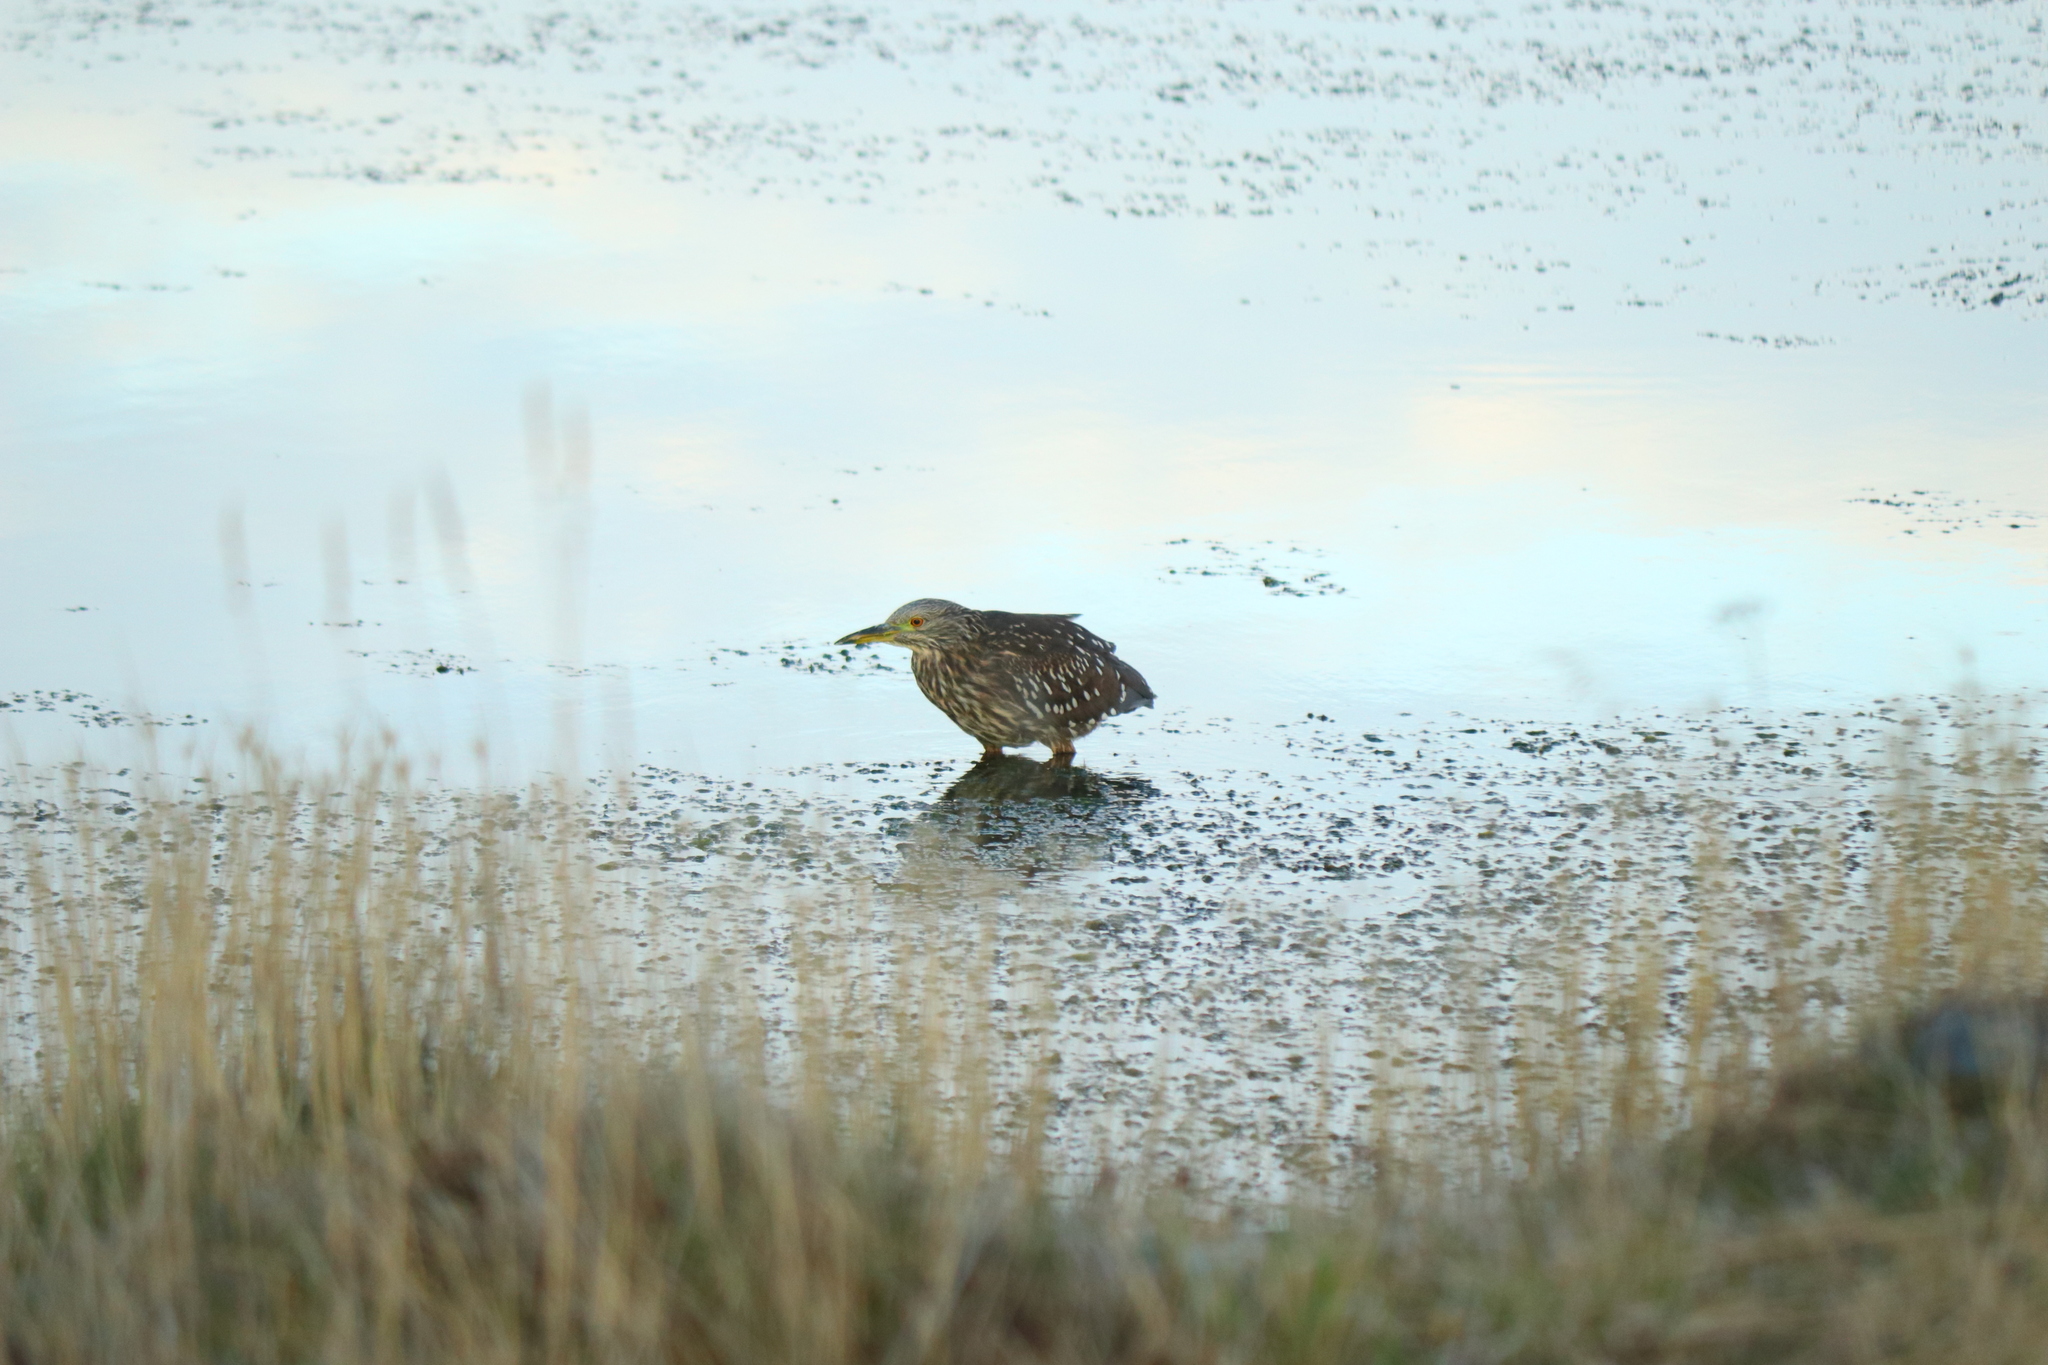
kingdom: Animalia
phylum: Chordata
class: Aves
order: Pelecaniformes
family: Ardeidae
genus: Nycticorax
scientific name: Nycticorax nycticorax
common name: Black-crowned night heron
